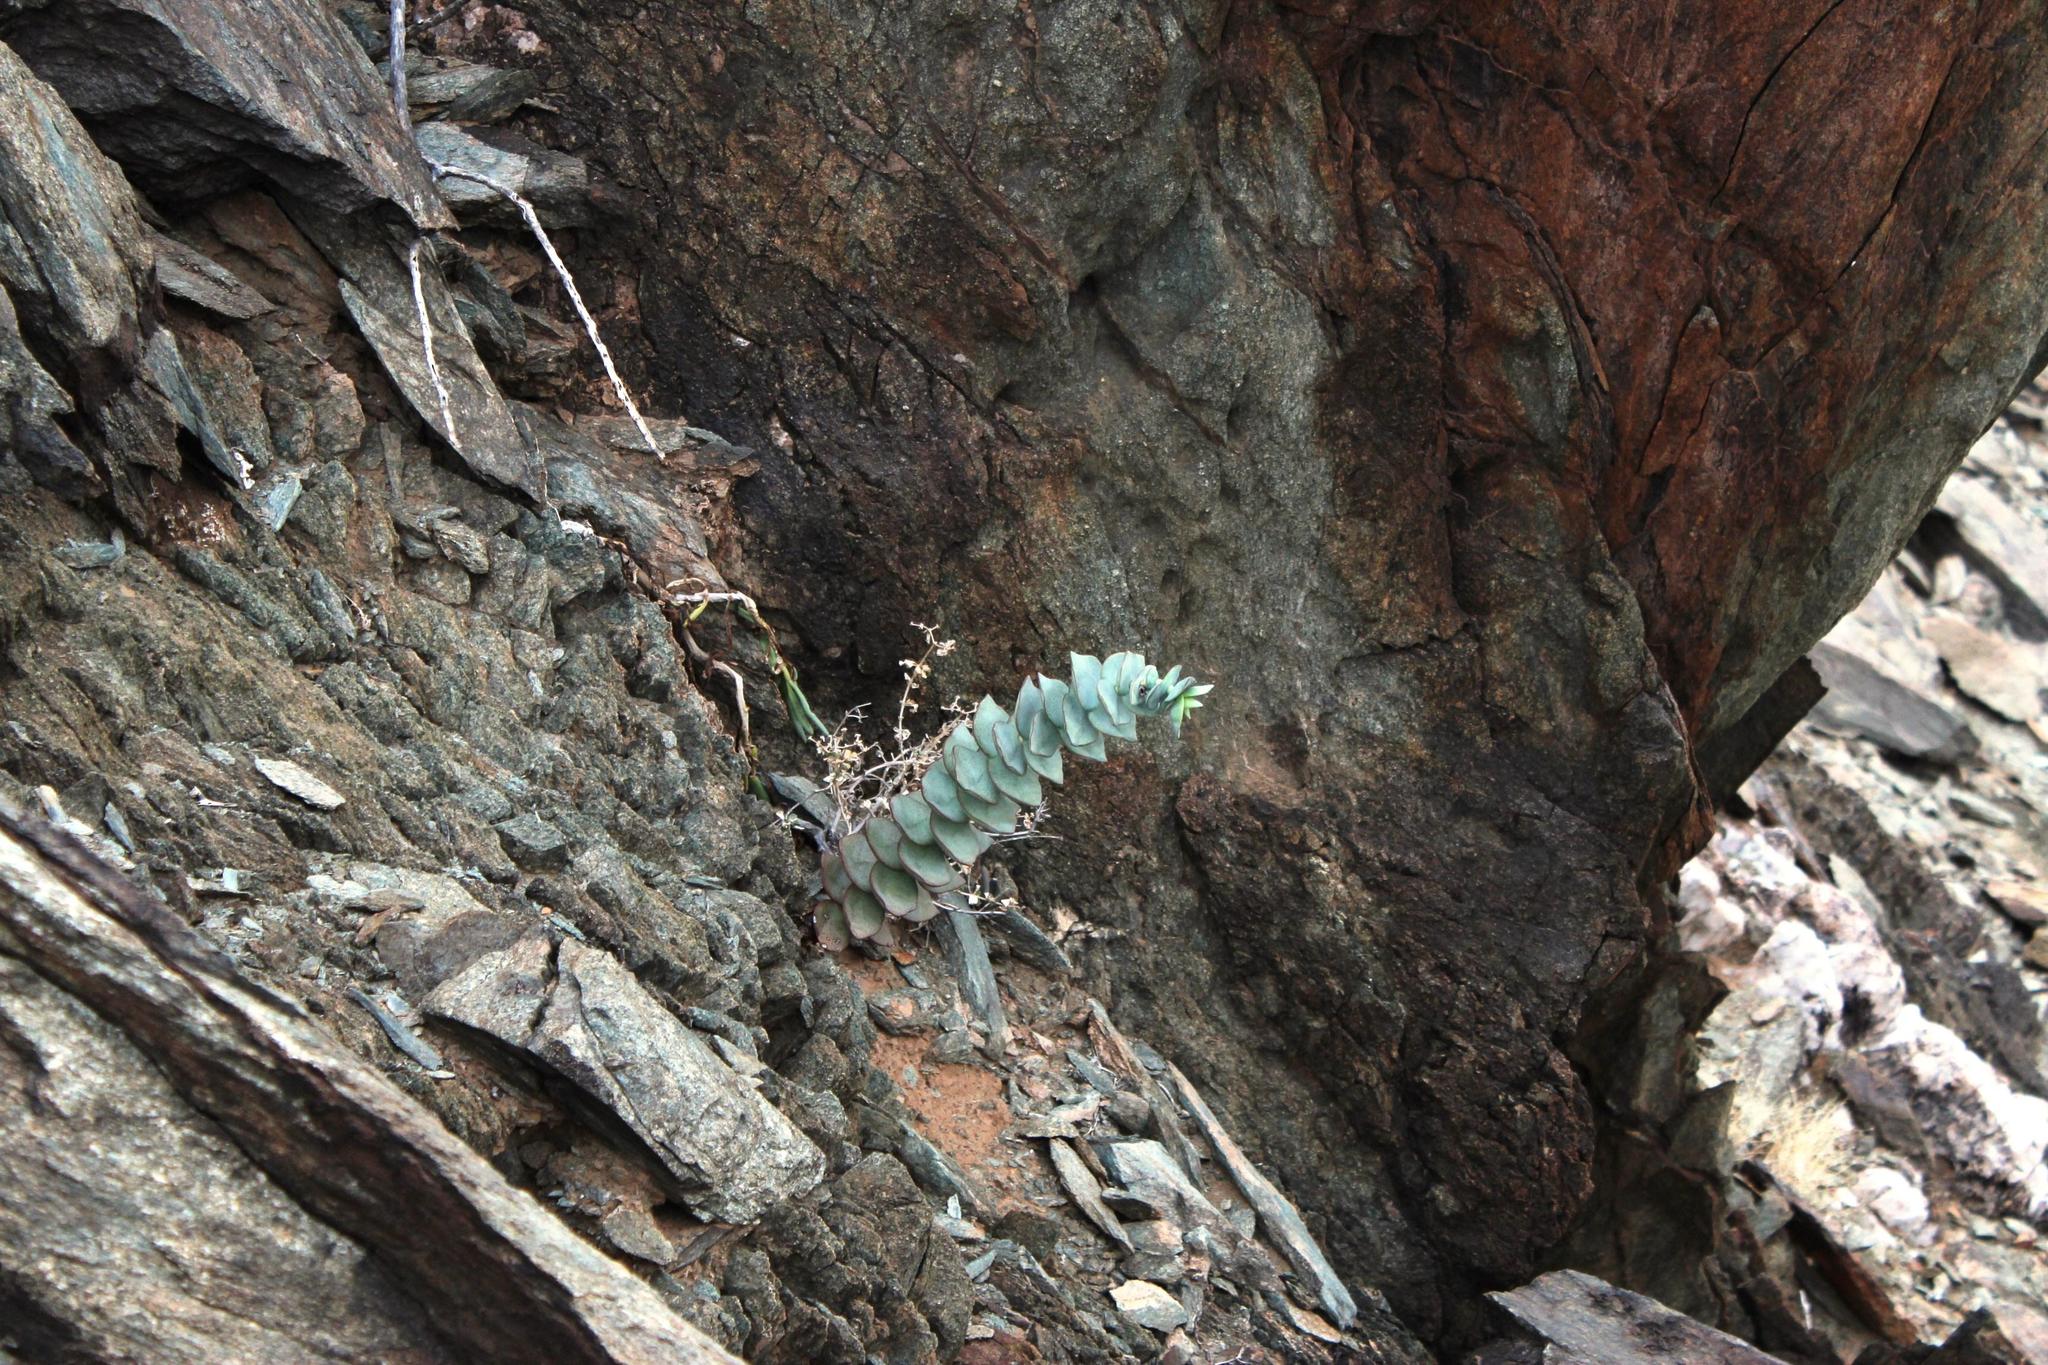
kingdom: Plantae
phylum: Tracheophyta
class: Magnoliopsida
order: Saxifragales
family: Crassulaceae
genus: Crassula
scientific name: Crassula sladenii
